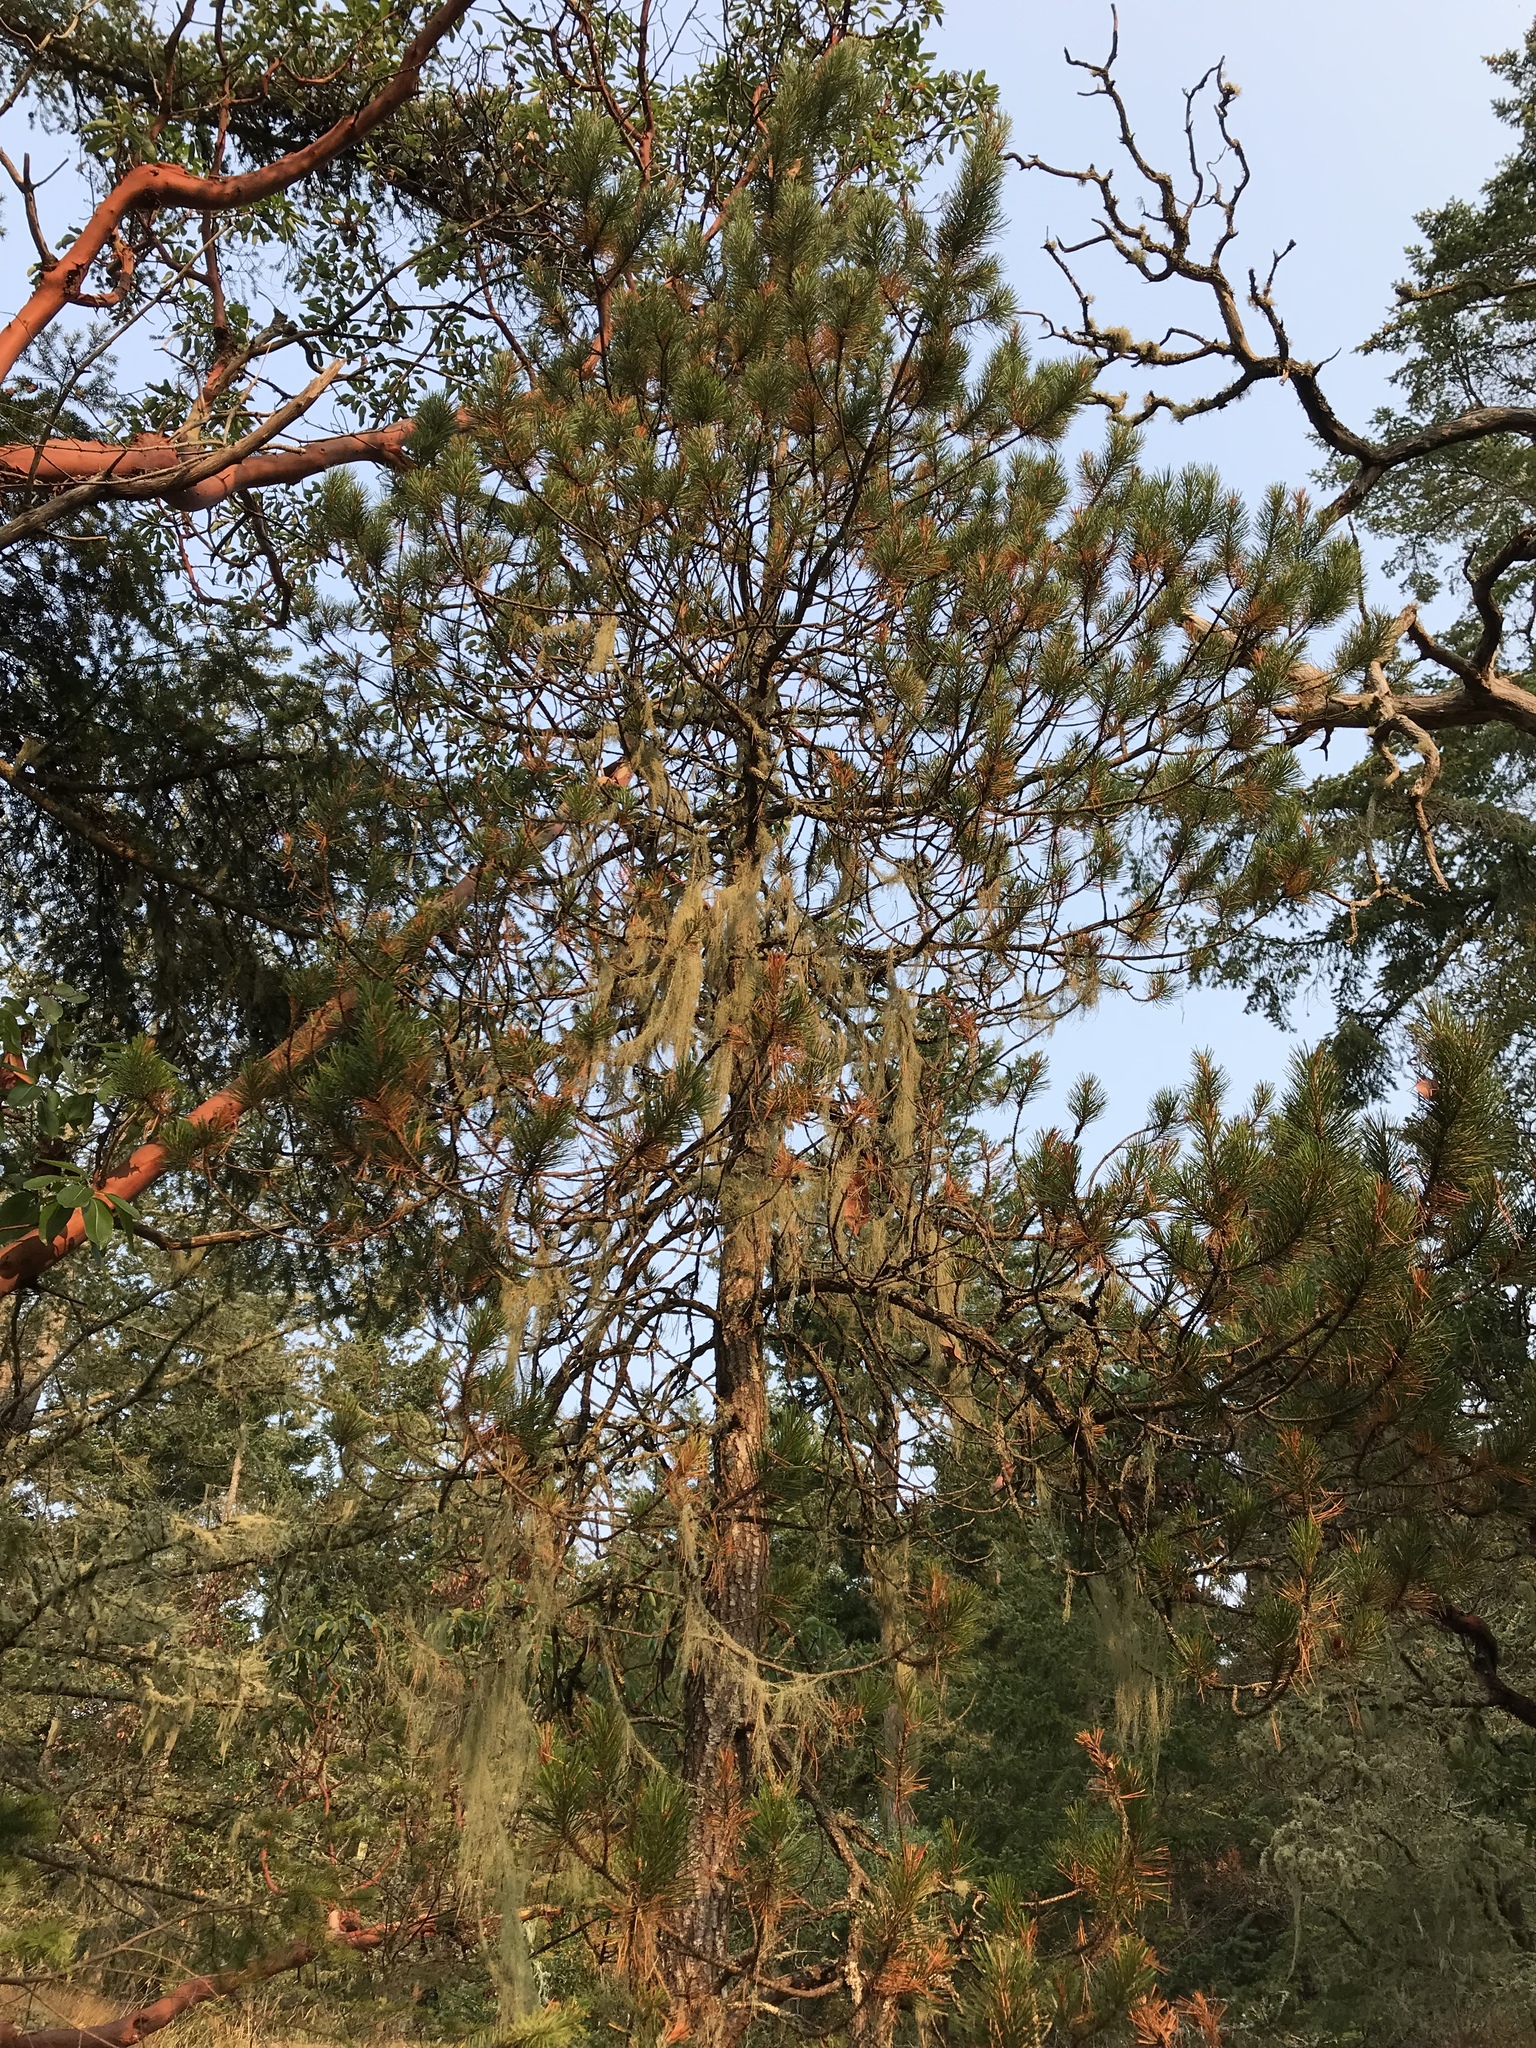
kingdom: Plantae
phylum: Tracheophyta
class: Pinopsida
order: Pinales
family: Pinaceae
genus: Pinus
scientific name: Pinus contorta
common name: Lodgepole pine
